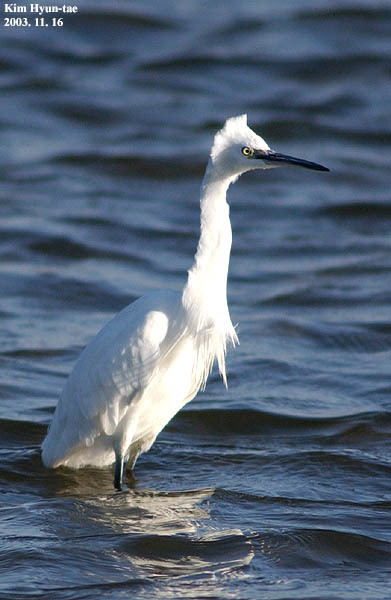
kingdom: Animalia
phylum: Chordata
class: Aves
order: Pelecaniformes
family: Ardeidae
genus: Egretta
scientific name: Egretta garzetta
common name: Little egret
